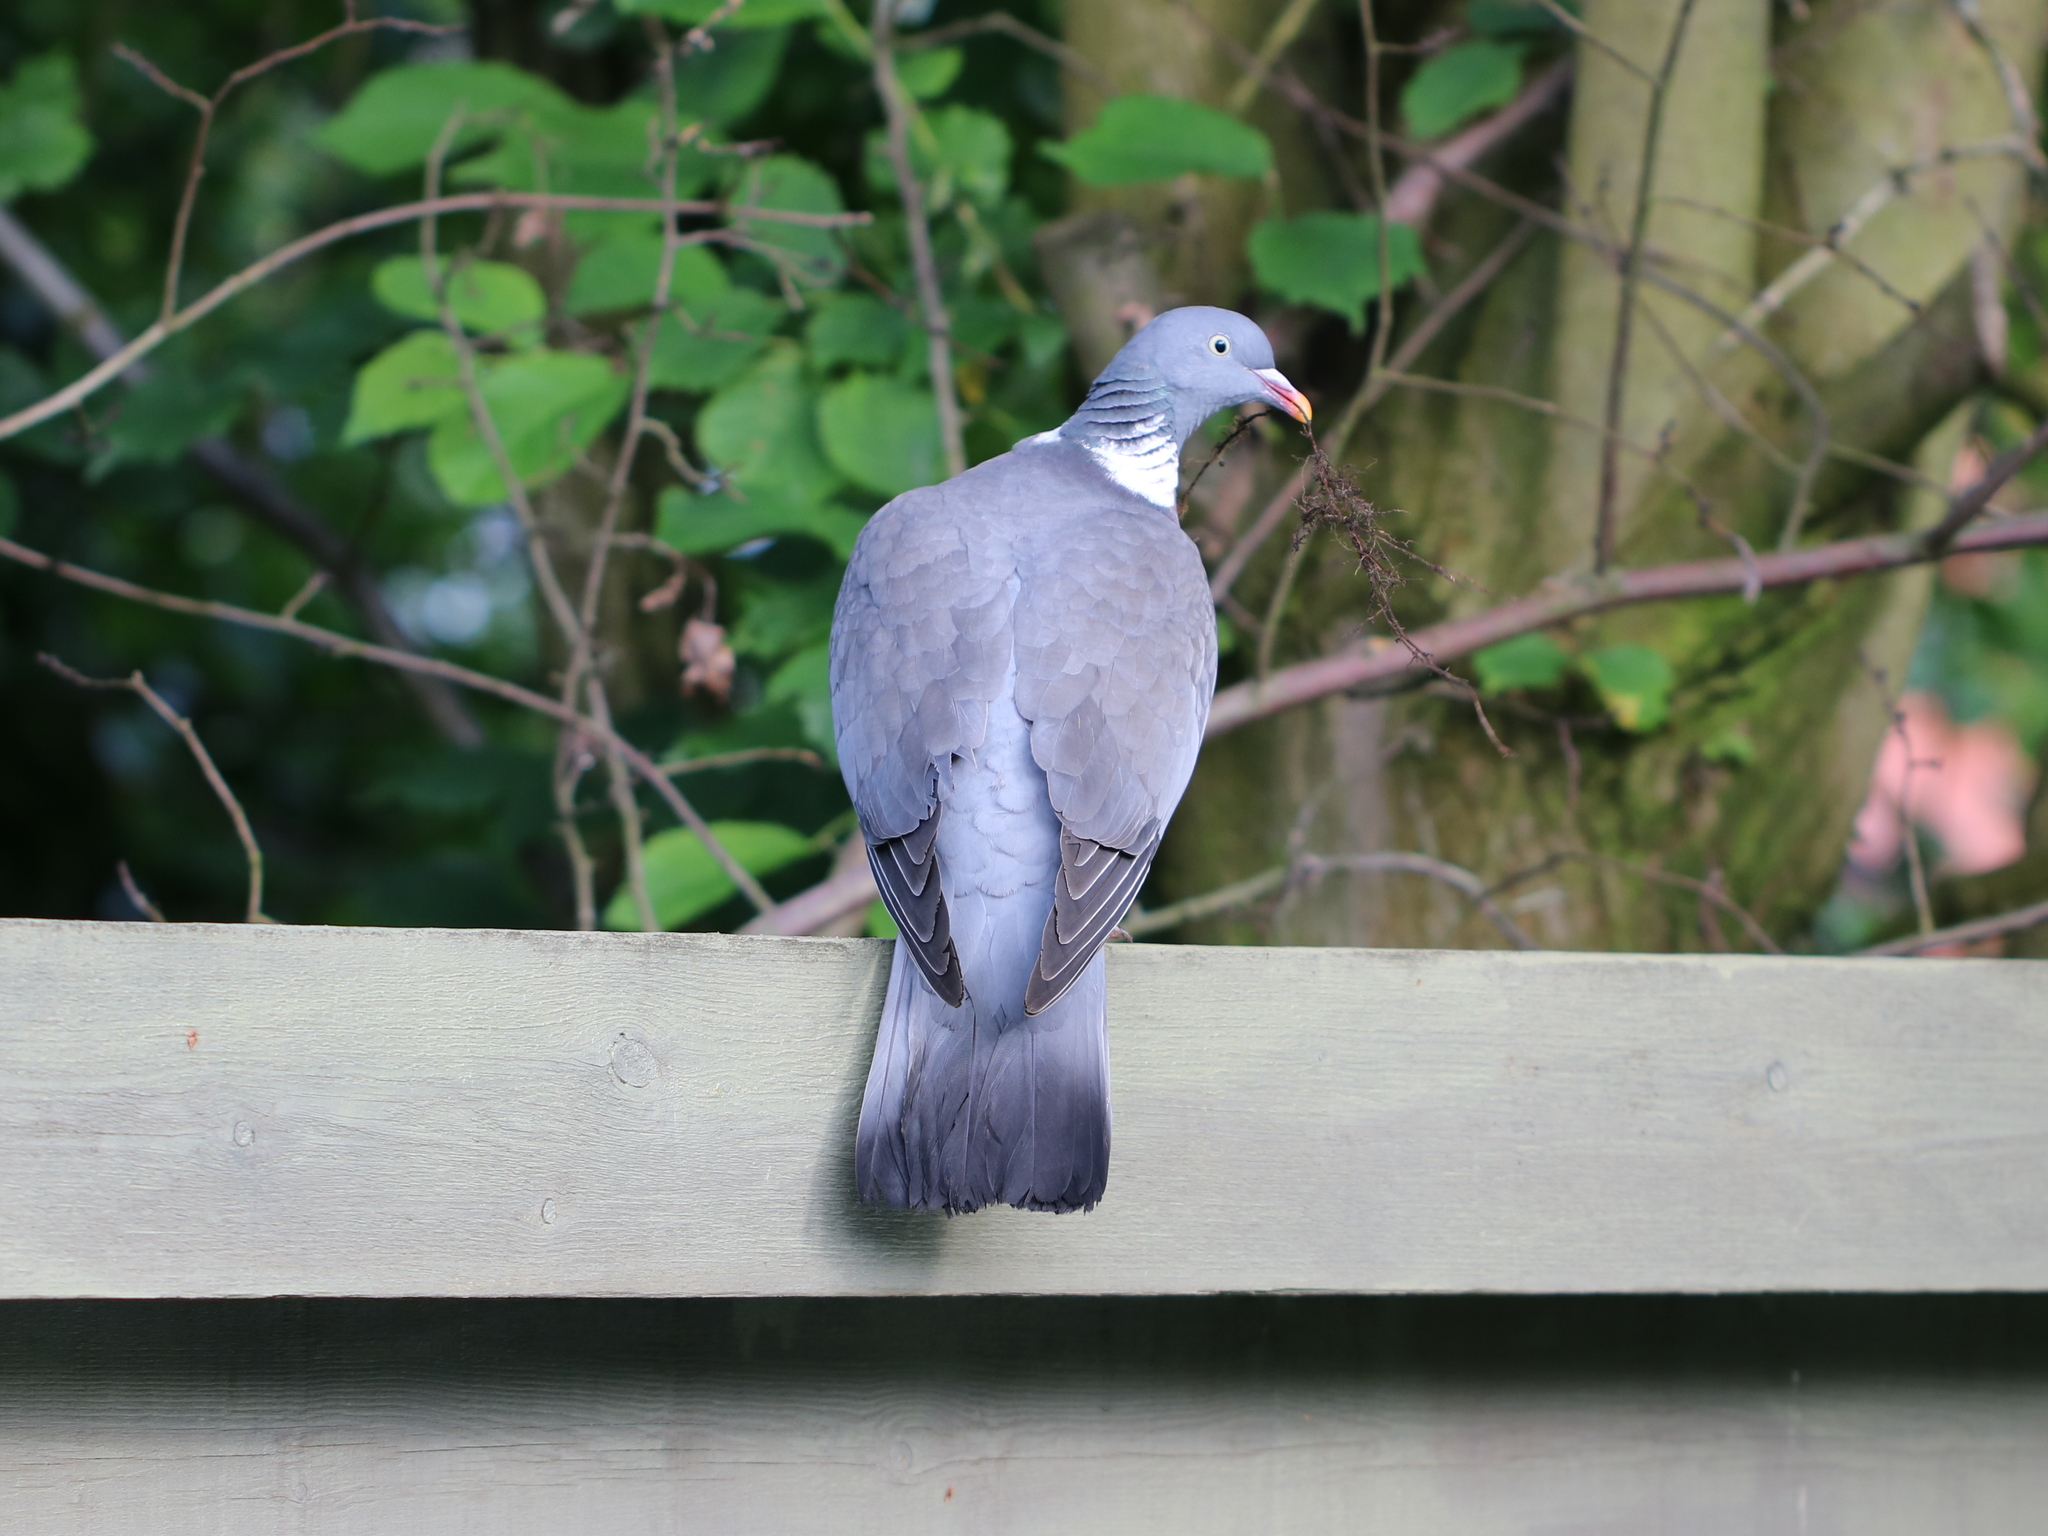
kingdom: Animalia
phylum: Chordata
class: Aves
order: Columbiformes
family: Columbidae
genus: Columba
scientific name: Columba palumbus
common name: Common wood pigeon
